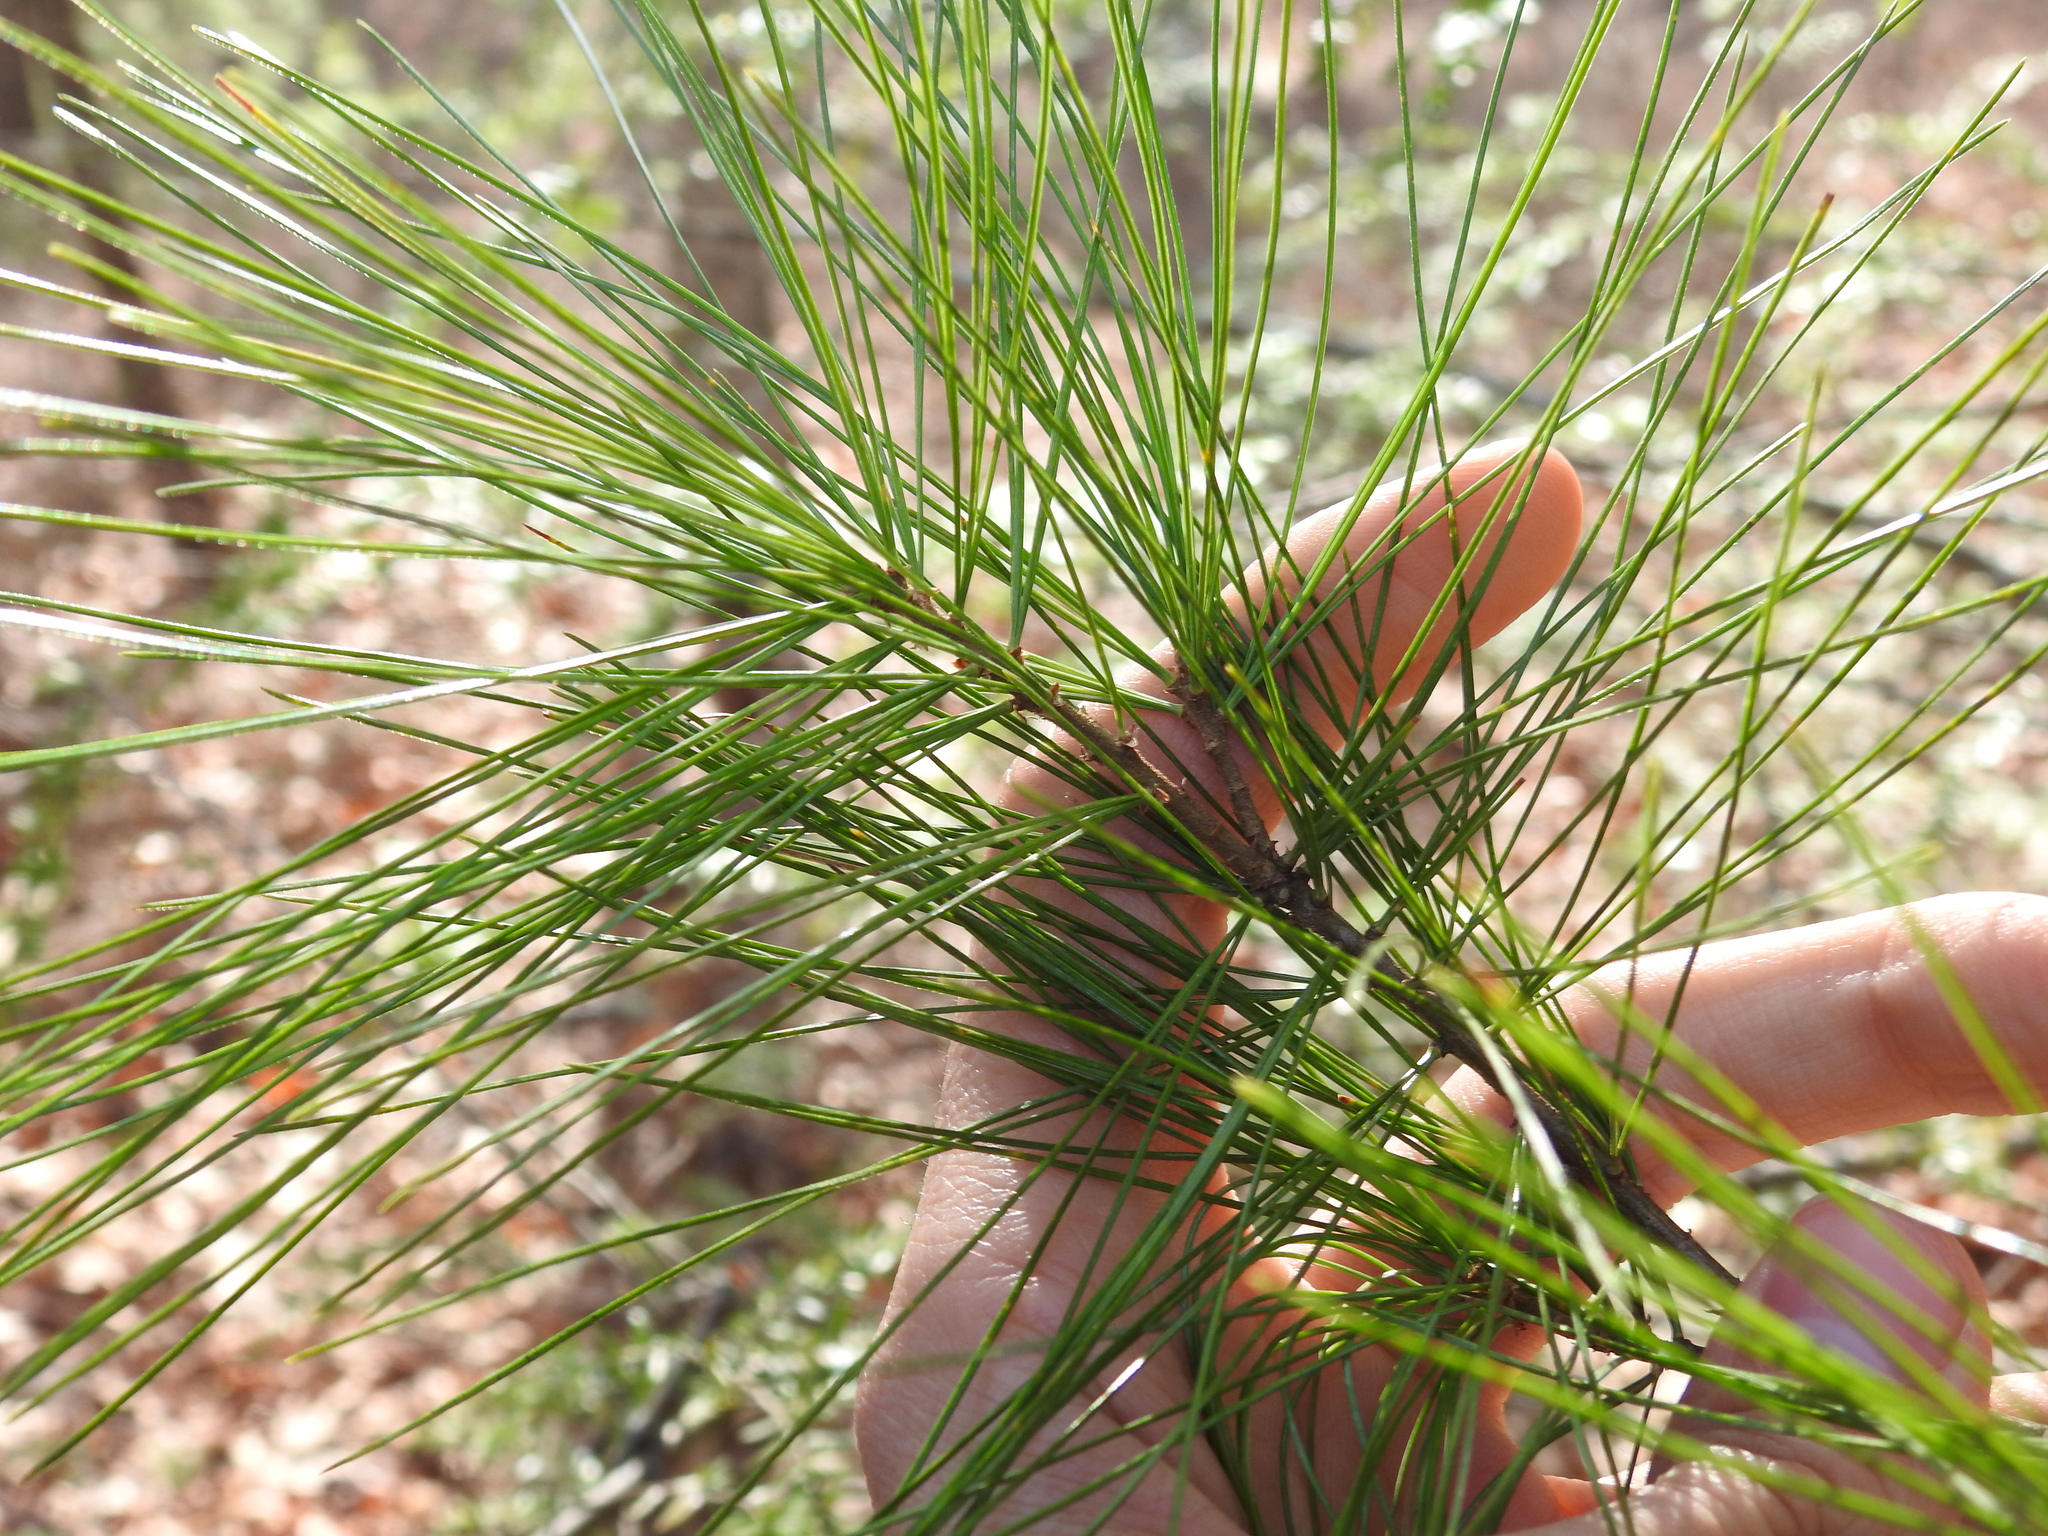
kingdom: Plantae
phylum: Tracheophyta
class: Pinopsida
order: Pinales
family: Pinaceae
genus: Pinus
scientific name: Pinus strobus
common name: Weymouth pine
